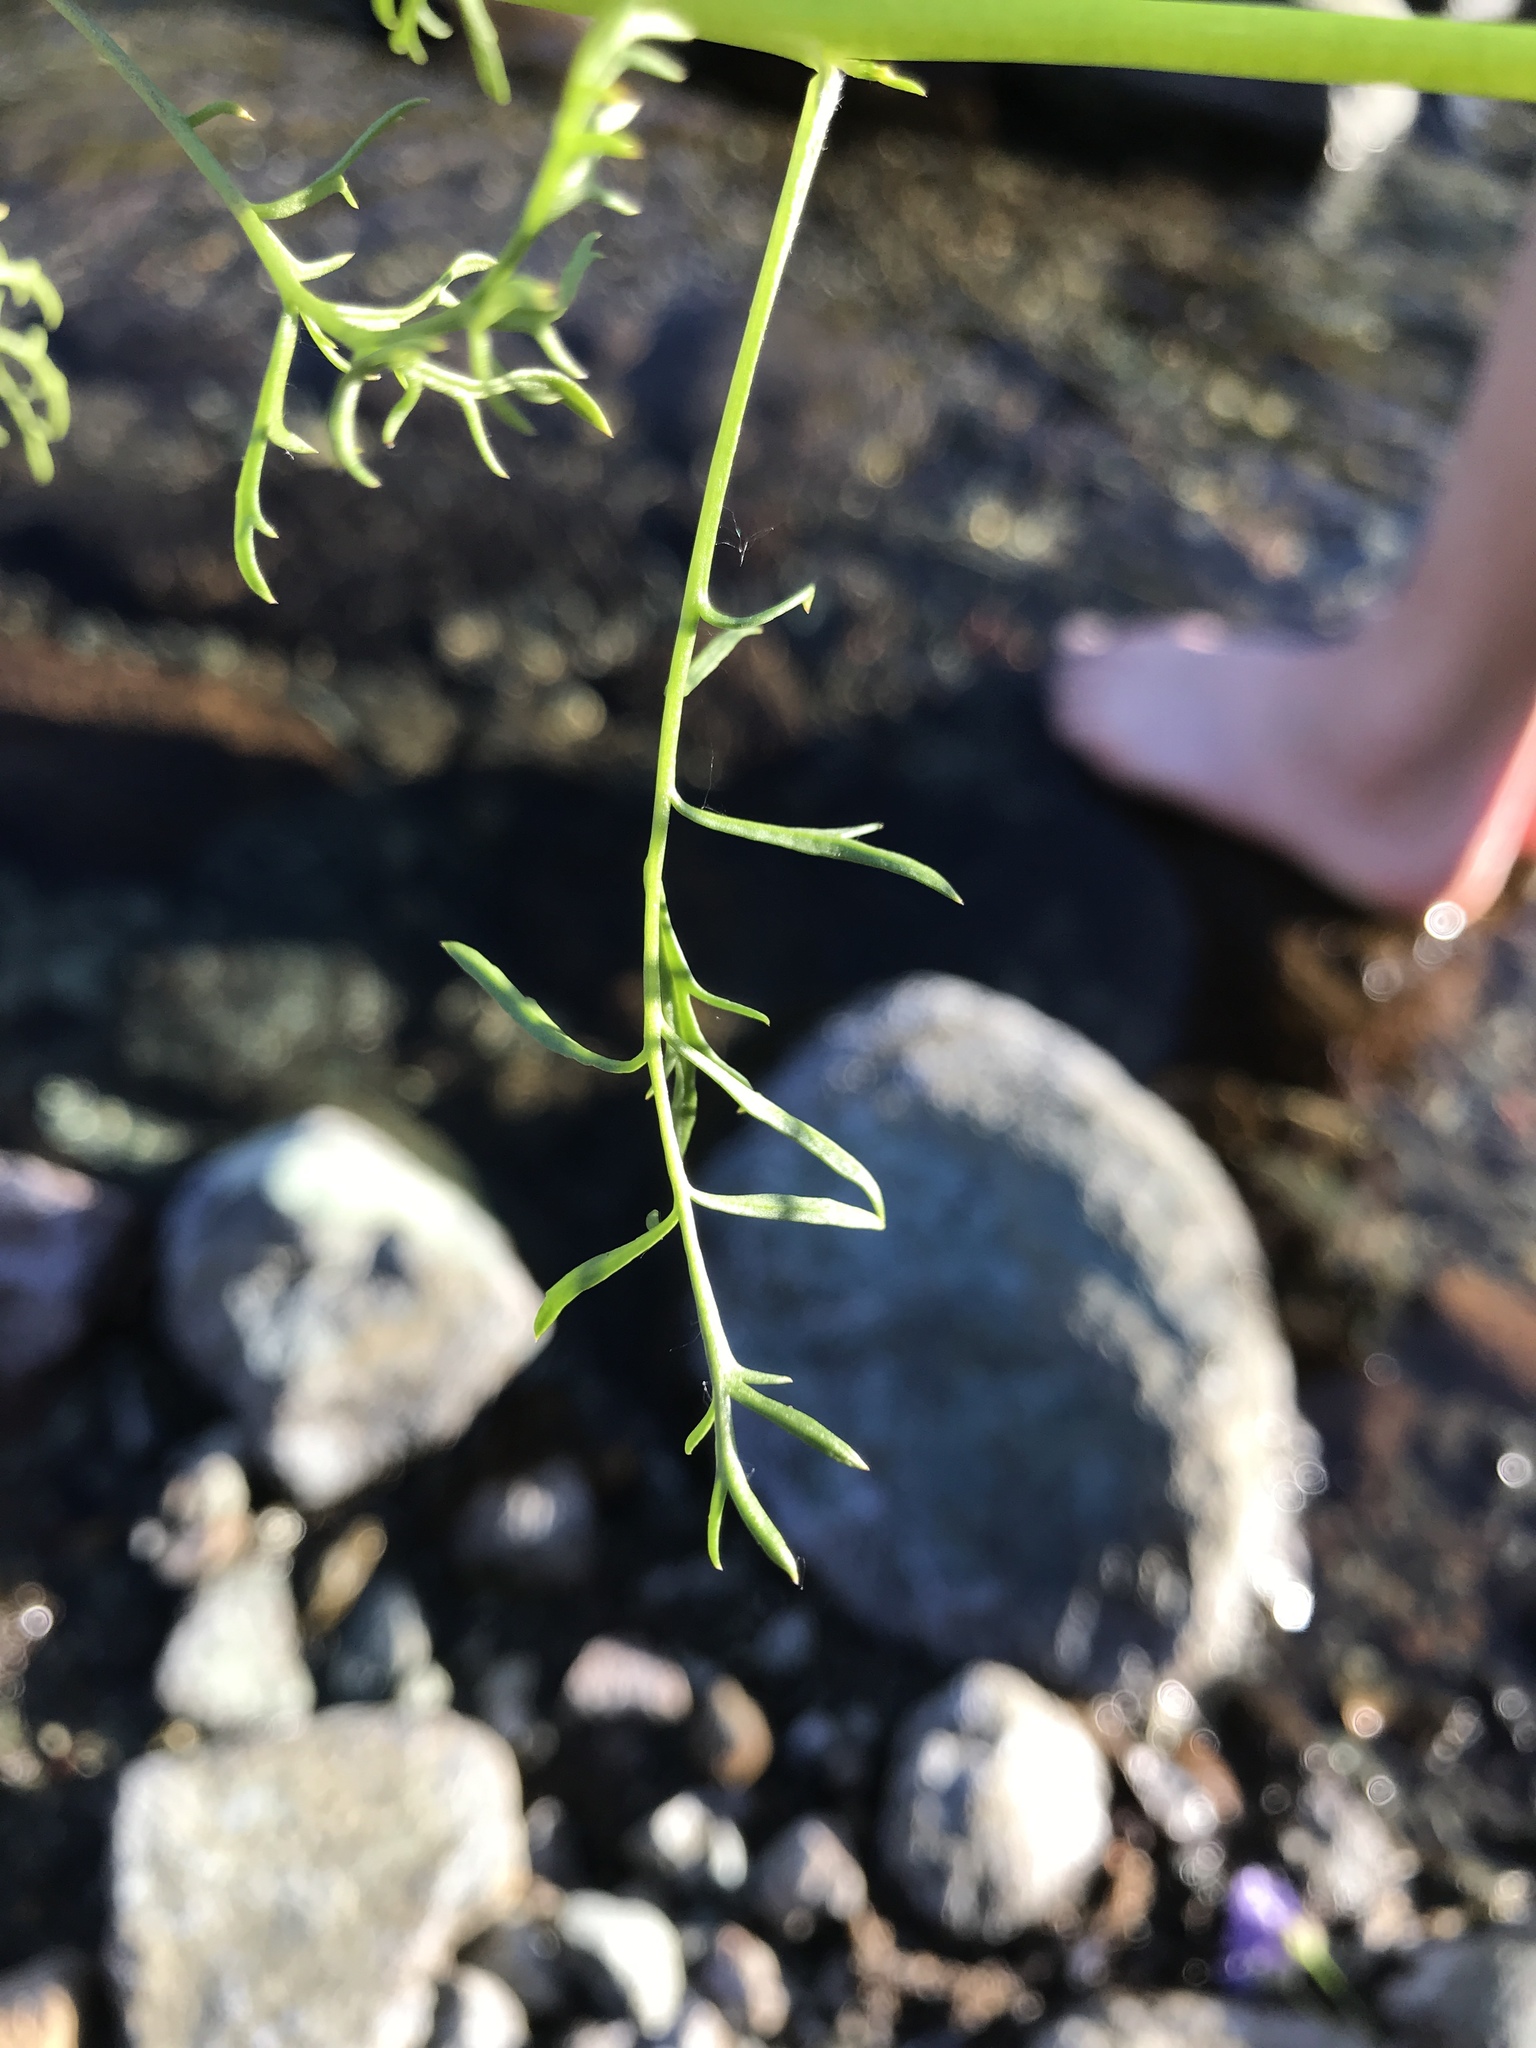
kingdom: Plantae
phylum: Tracheophyta
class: Magnoliopsida
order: Ericales
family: Polemoniaceae
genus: Gilia
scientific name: Gilia achilleifolia
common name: California gily-flower
